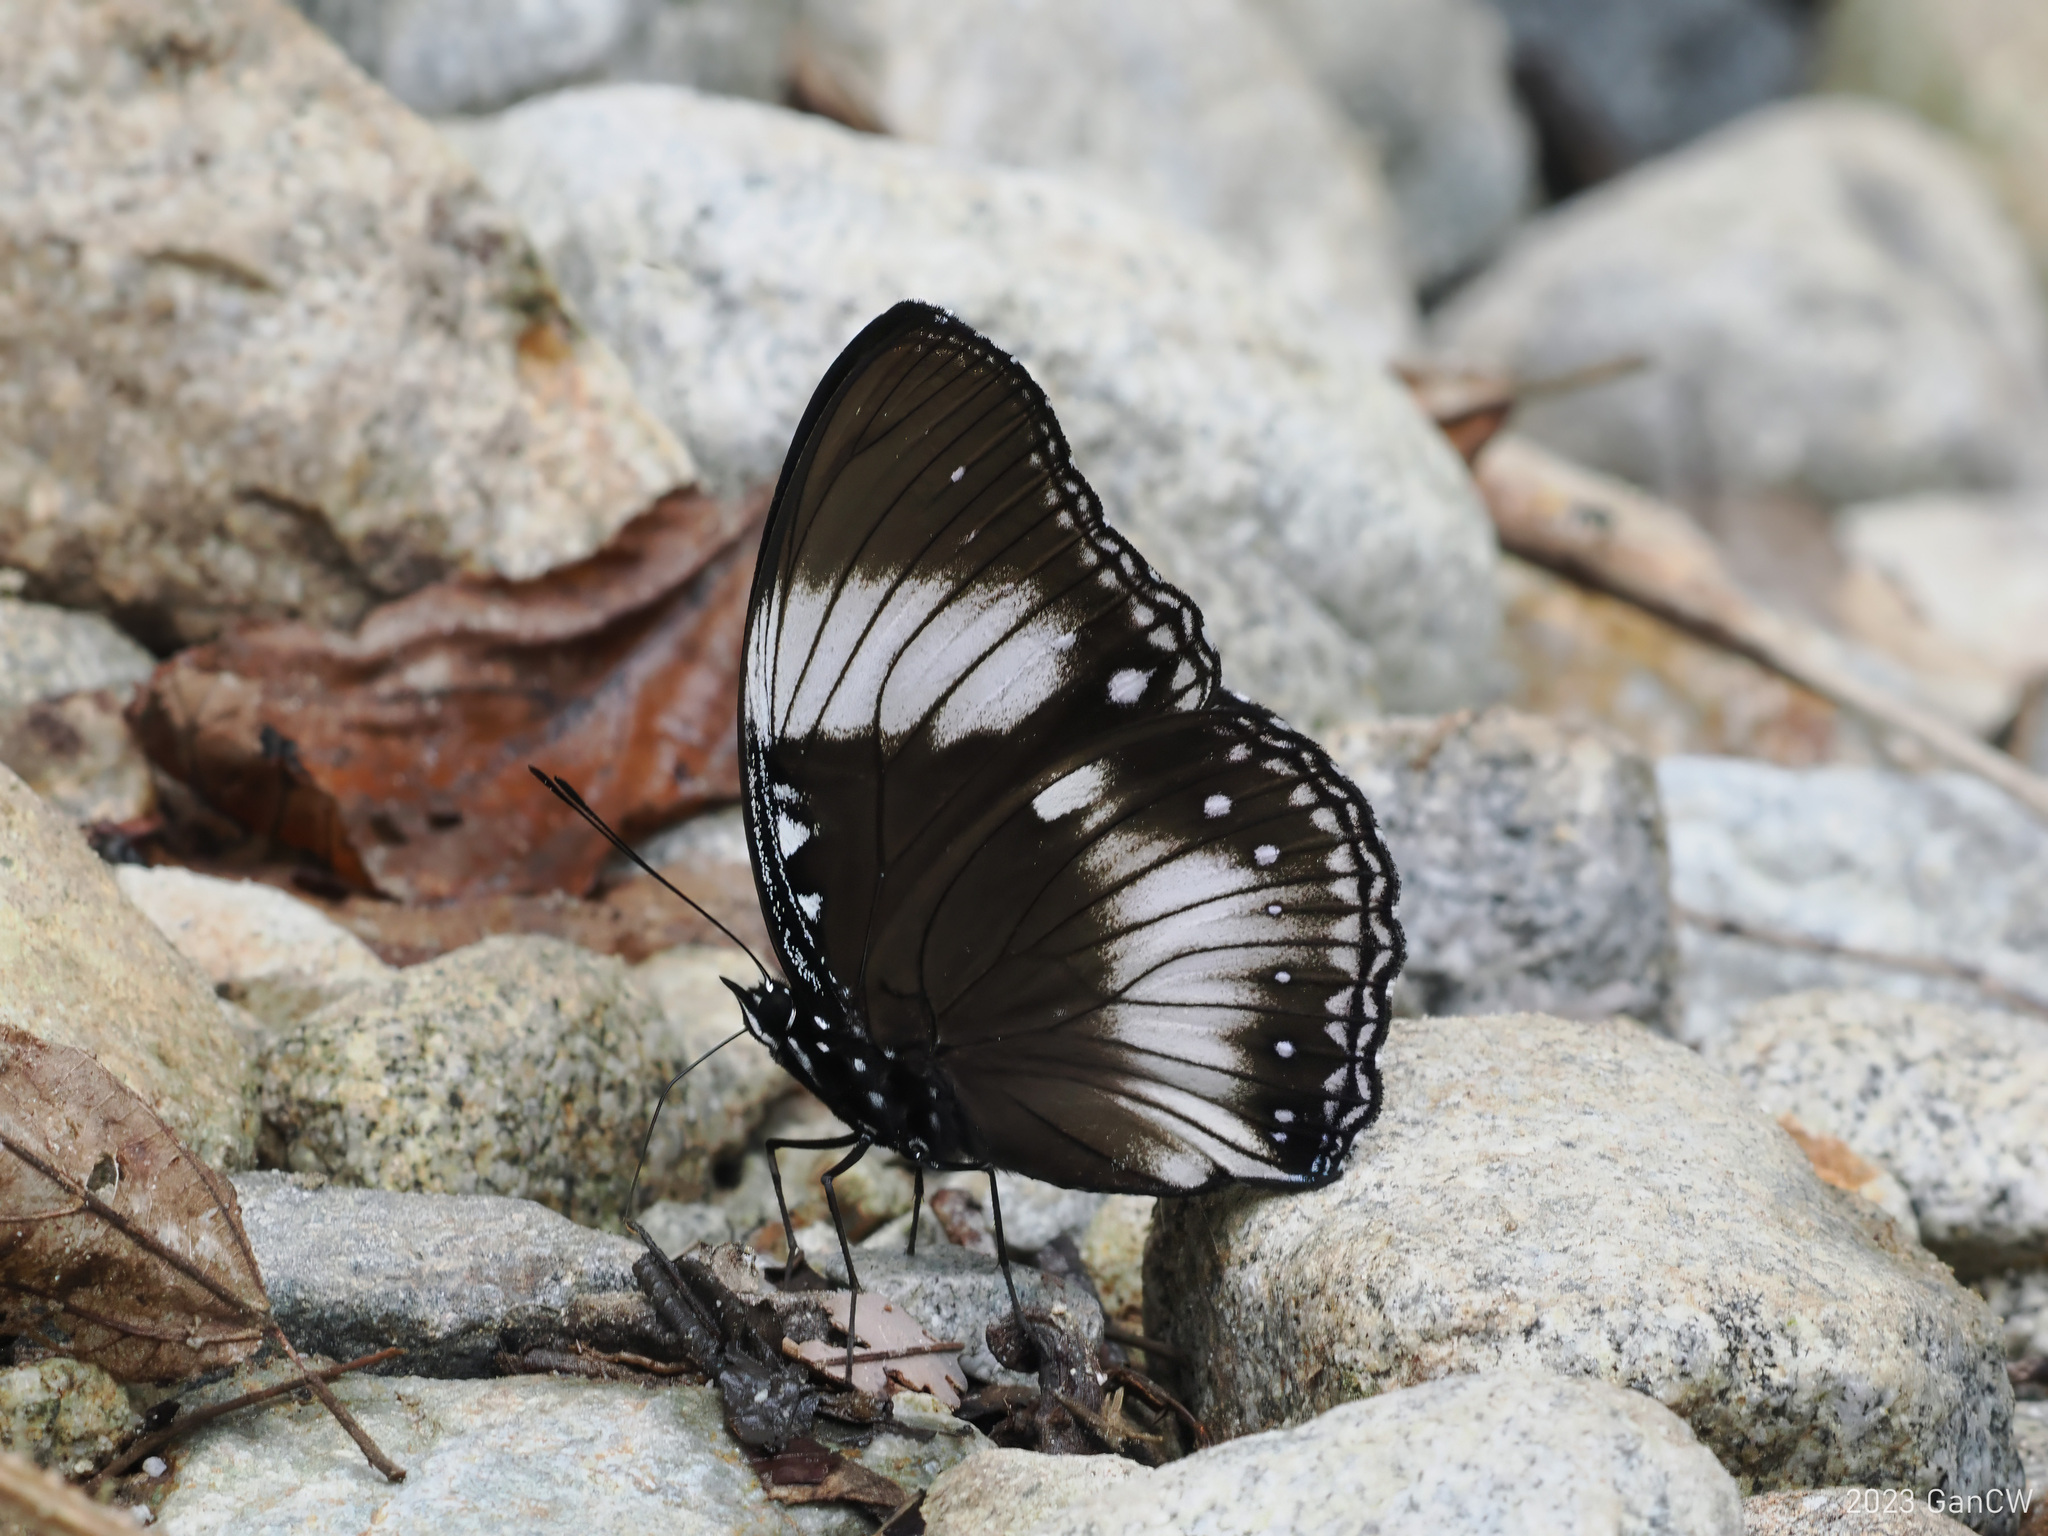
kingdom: Animalia
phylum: Arthropoda
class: Insecta
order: Lepidoptera
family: Nymphalidae
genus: Hypolimnas
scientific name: Hypolimnas diomea
